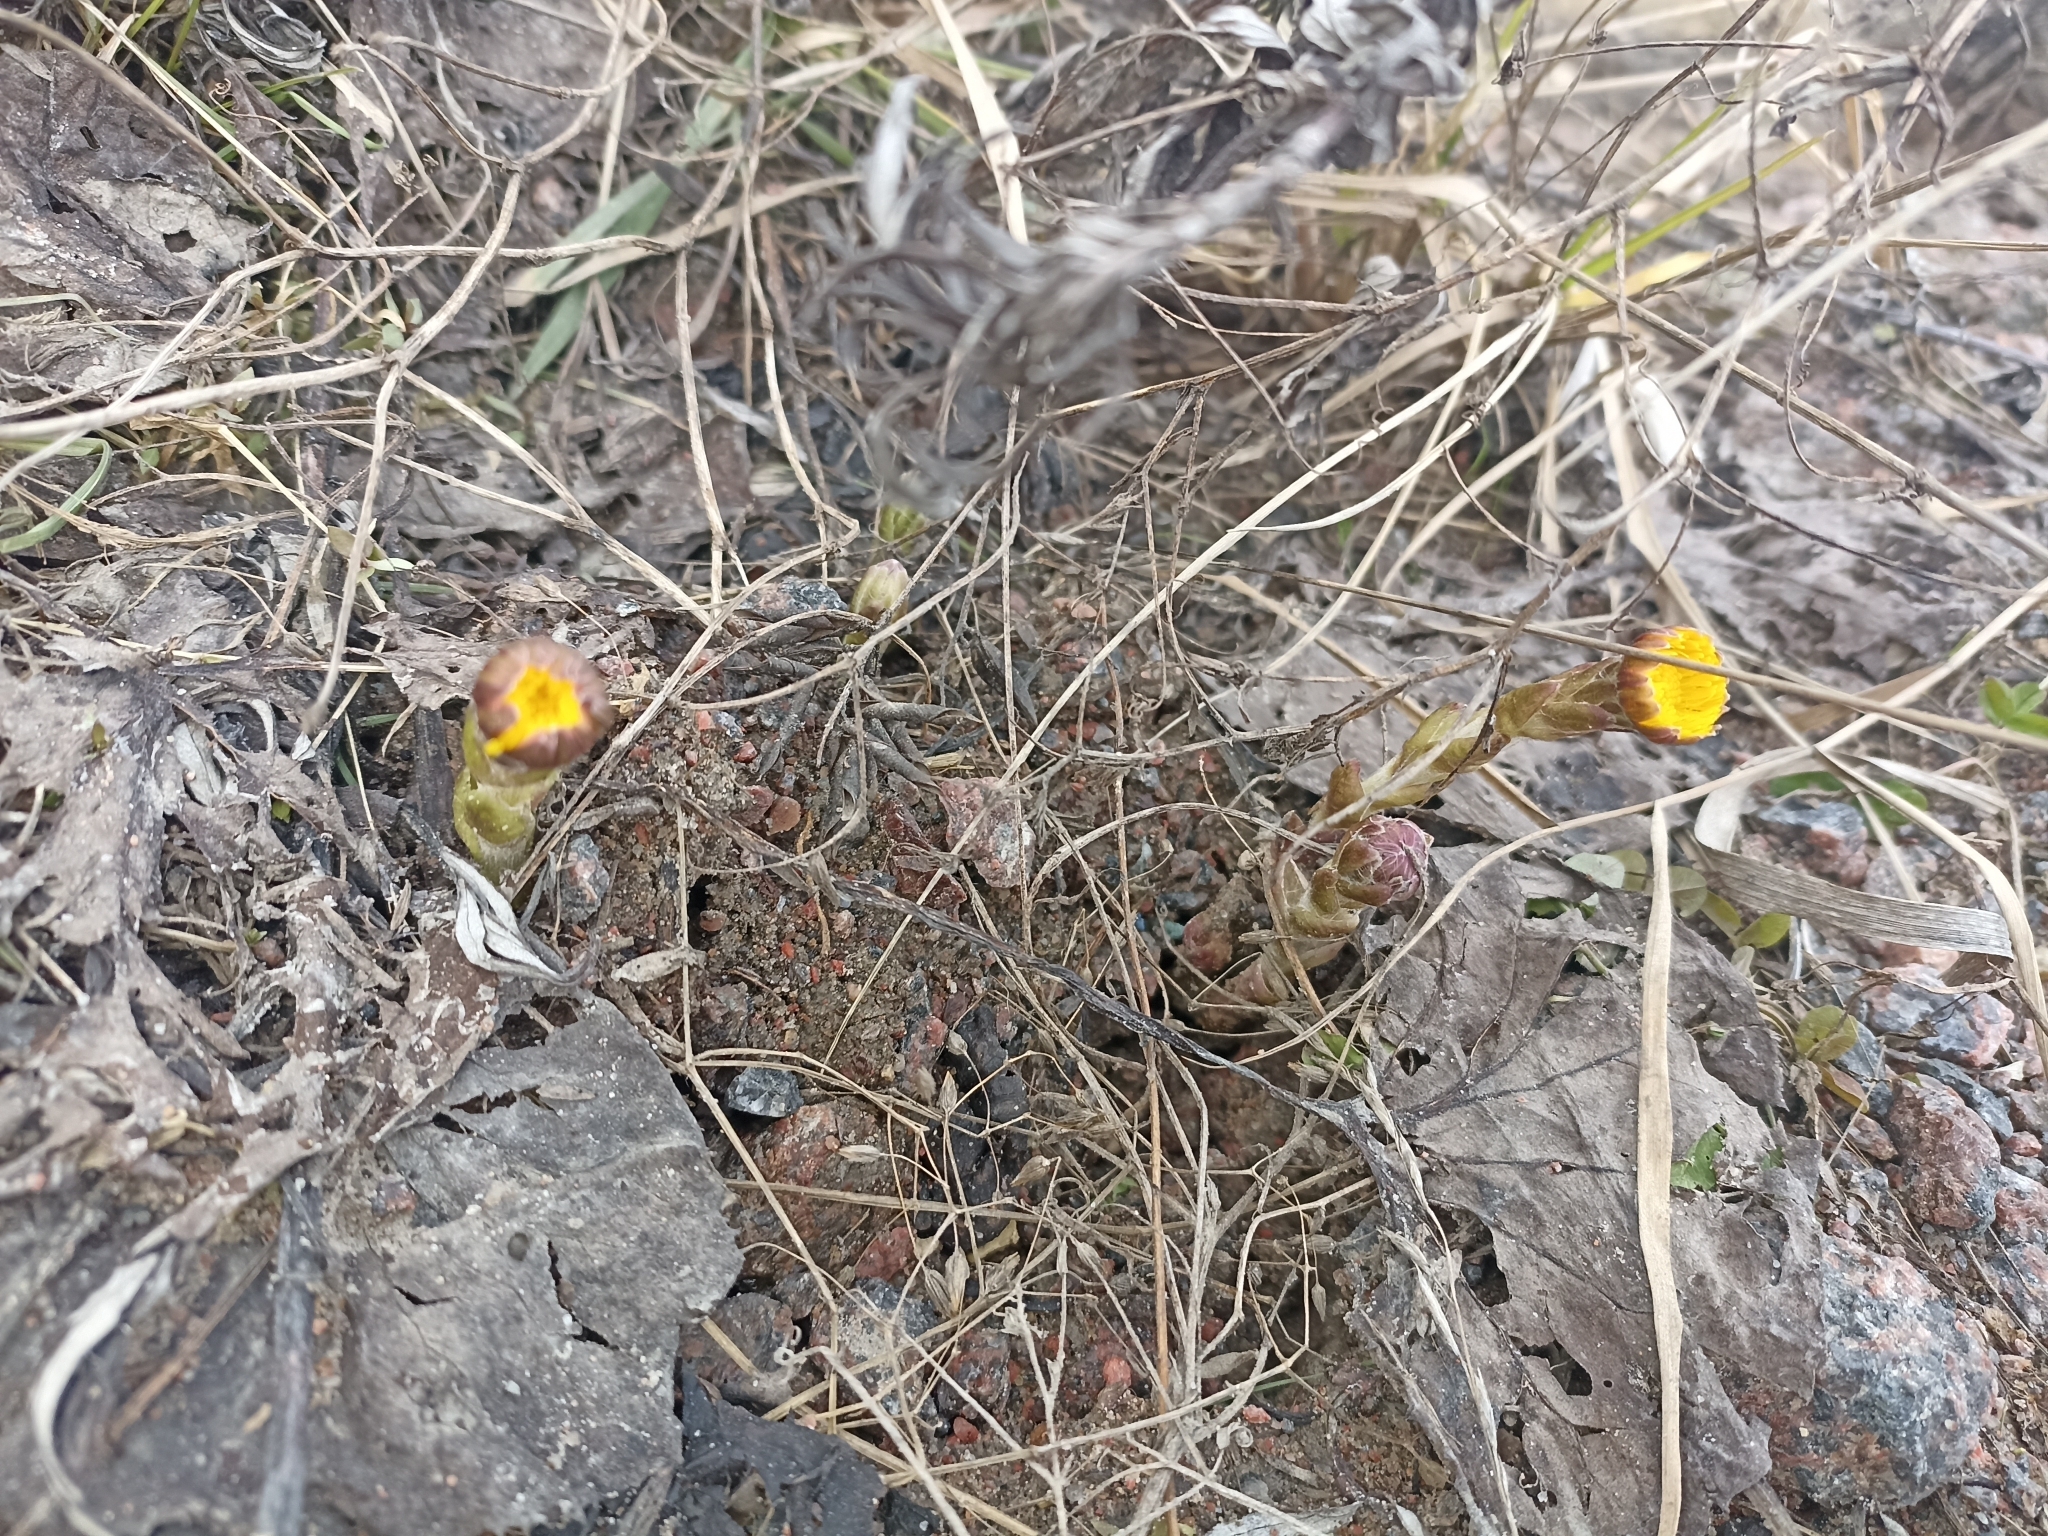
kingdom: Plantae
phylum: Tracheophyta
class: Magnoliopsida
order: Asterales
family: Asteraceae
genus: Tussilago
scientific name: Tussilago farfara
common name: Coltsfoot
